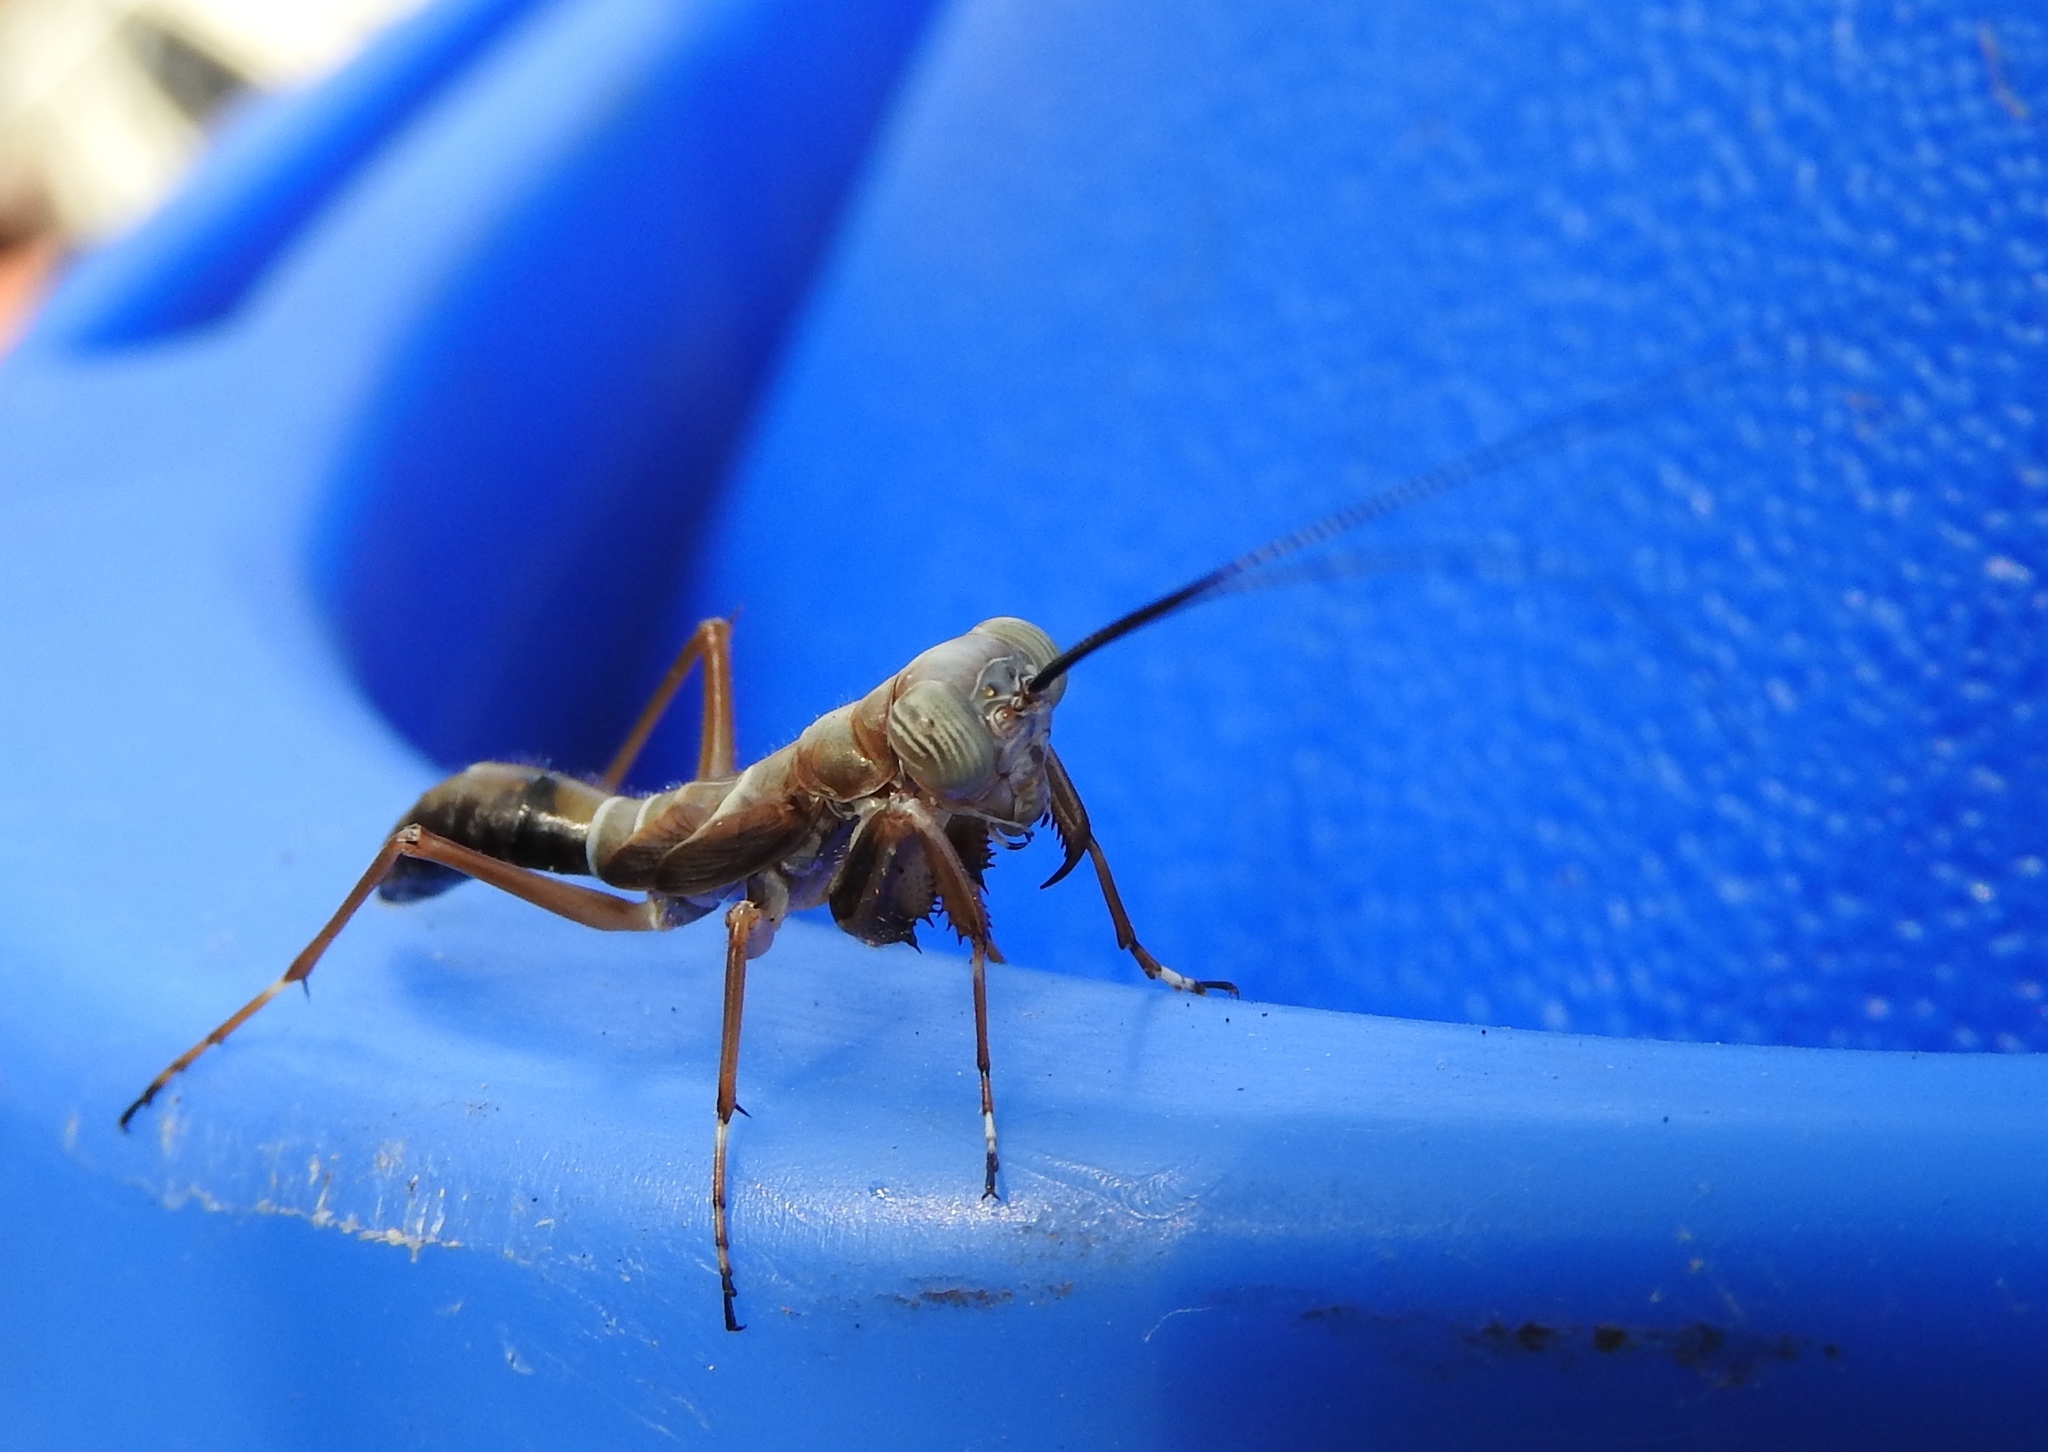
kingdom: Animalia
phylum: Arthropoda
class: Insecta
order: Mantodea
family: Mantoididae
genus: Mantoida
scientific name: Mantoida maya
